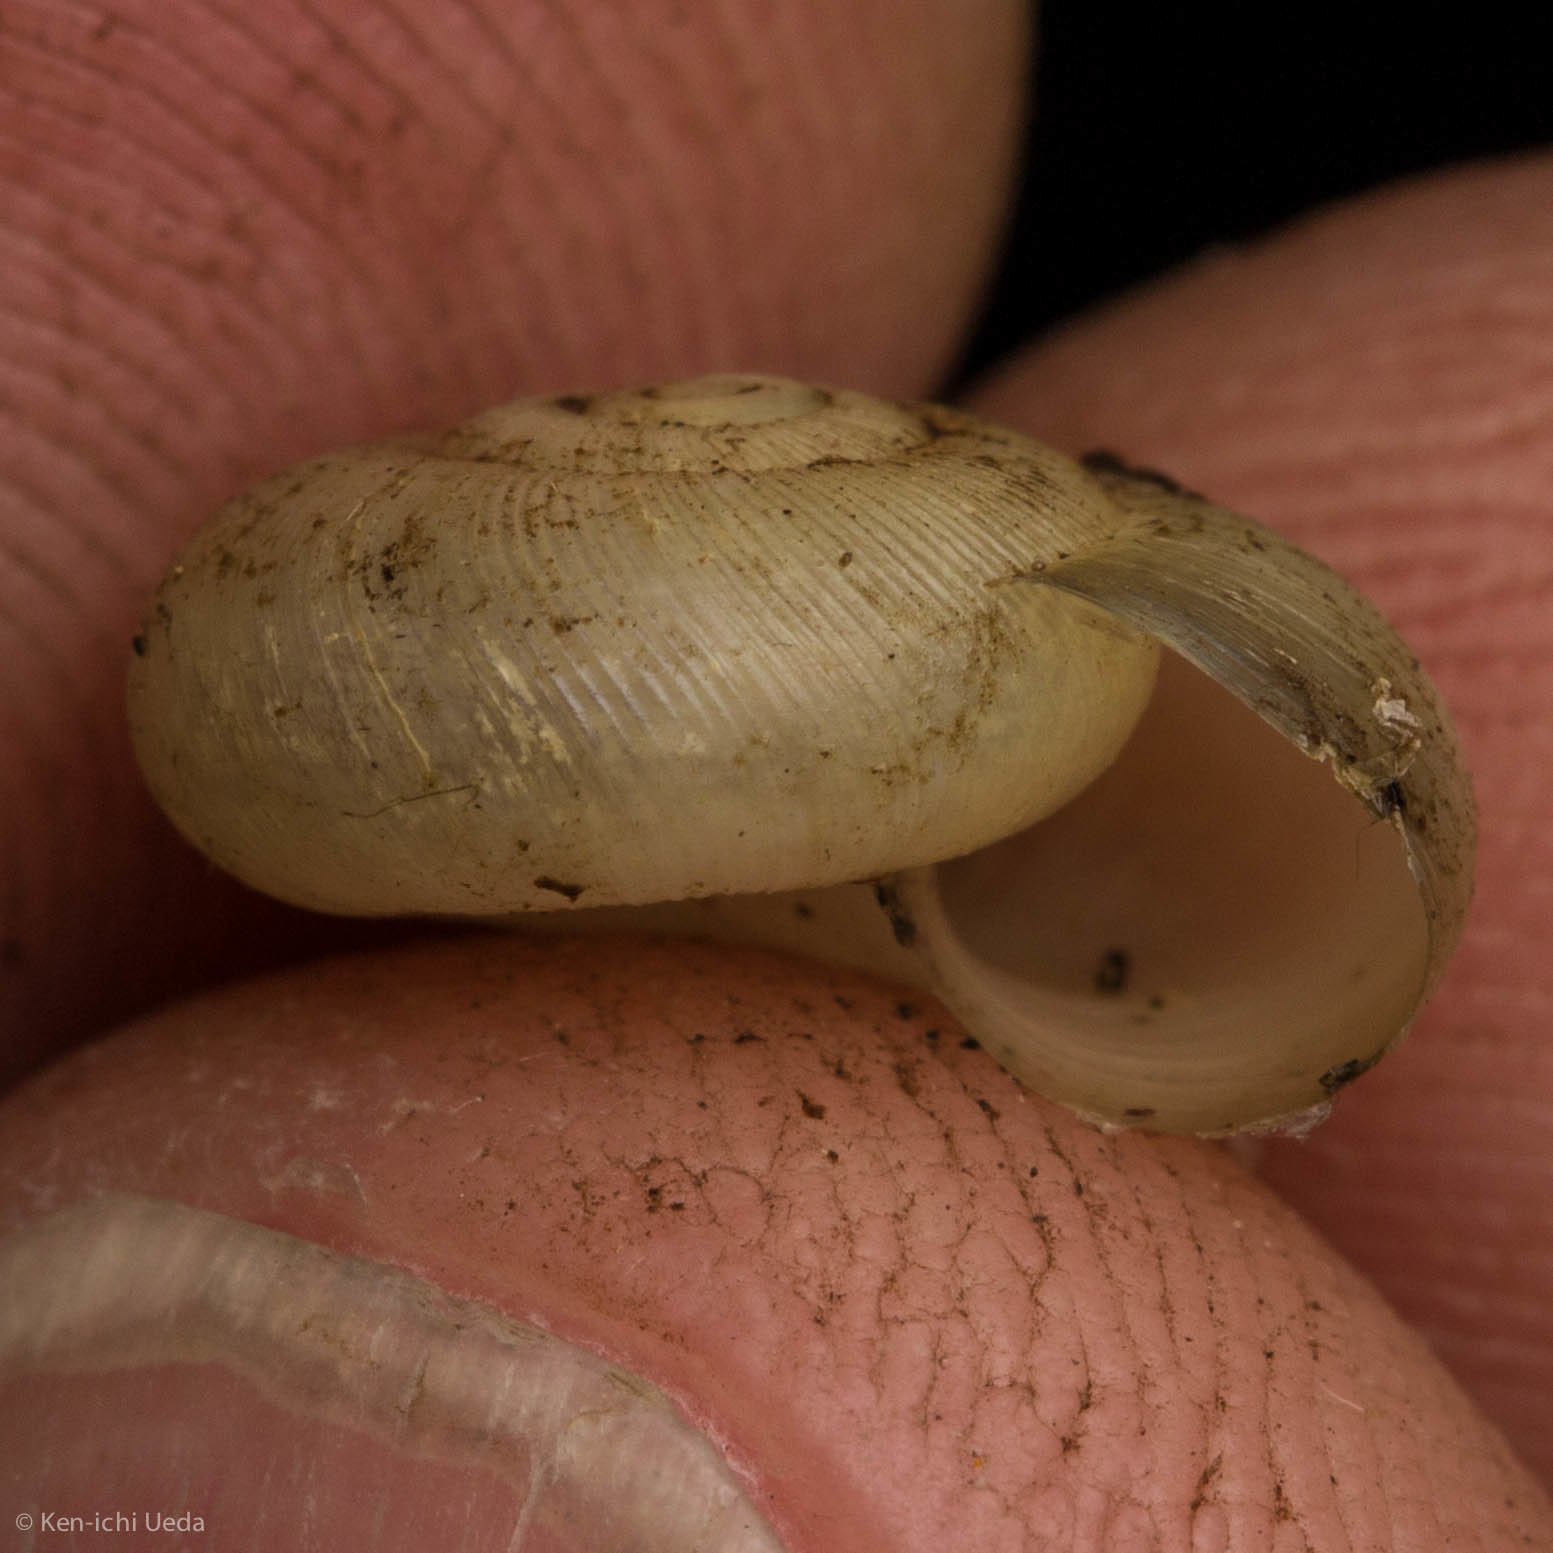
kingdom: Animalia
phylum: Mollusca
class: Gastropoda
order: Stylommatophora
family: Haplotrematidae
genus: Ancotrema
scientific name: Ancotrema sportella
